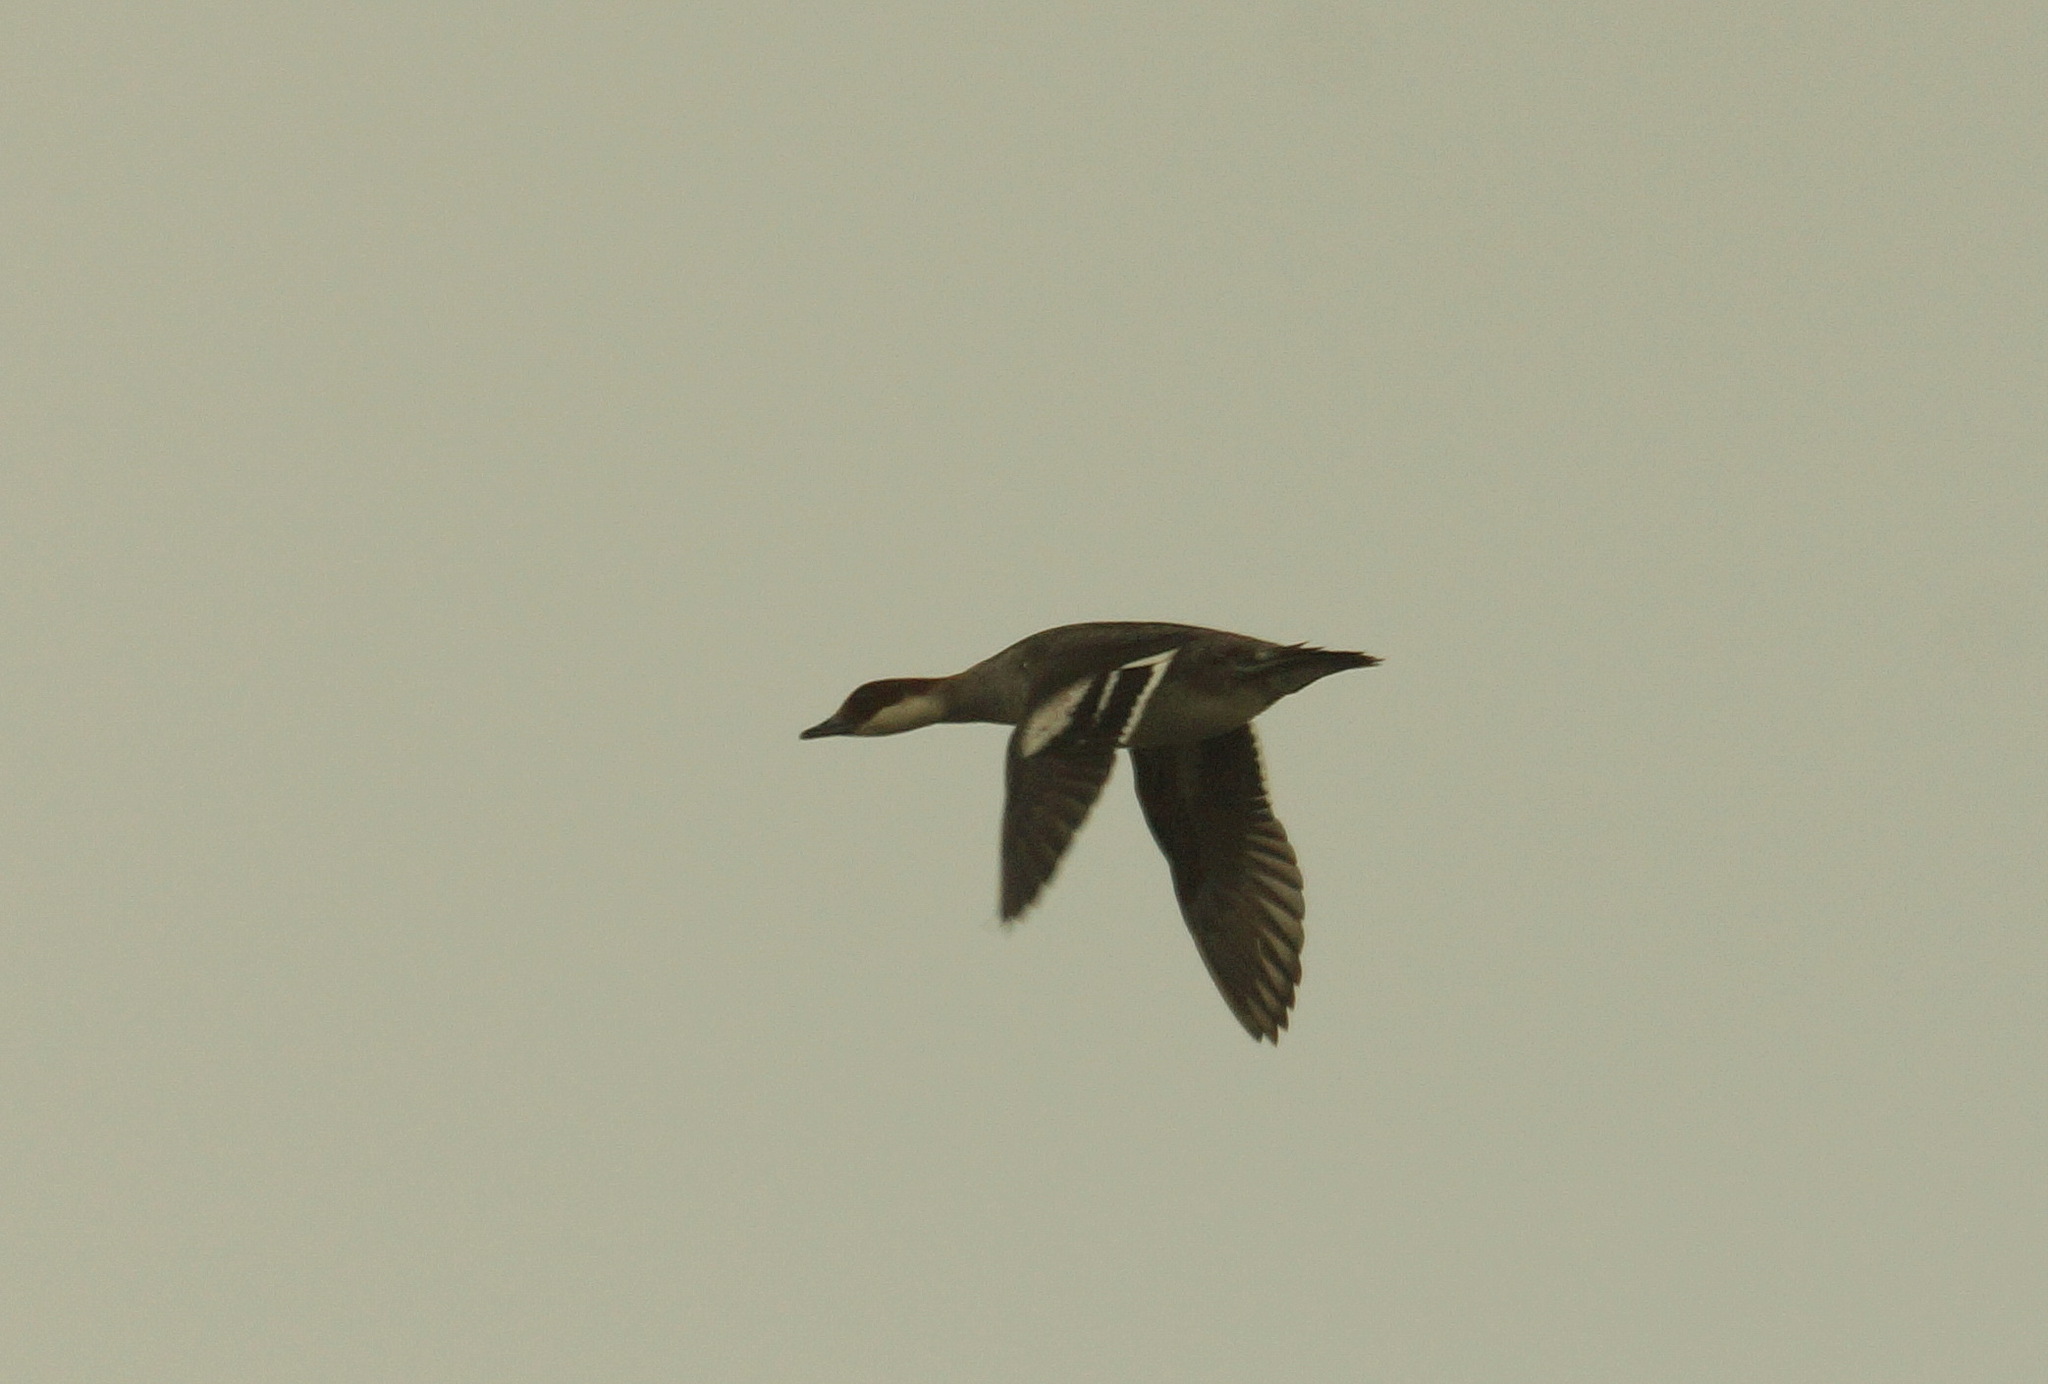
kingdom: Animalia
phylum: Chordata
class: Aves
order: Anseriformes
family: Anatidae
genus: Mergellus
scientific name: Mergellus albellus
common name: Smew
